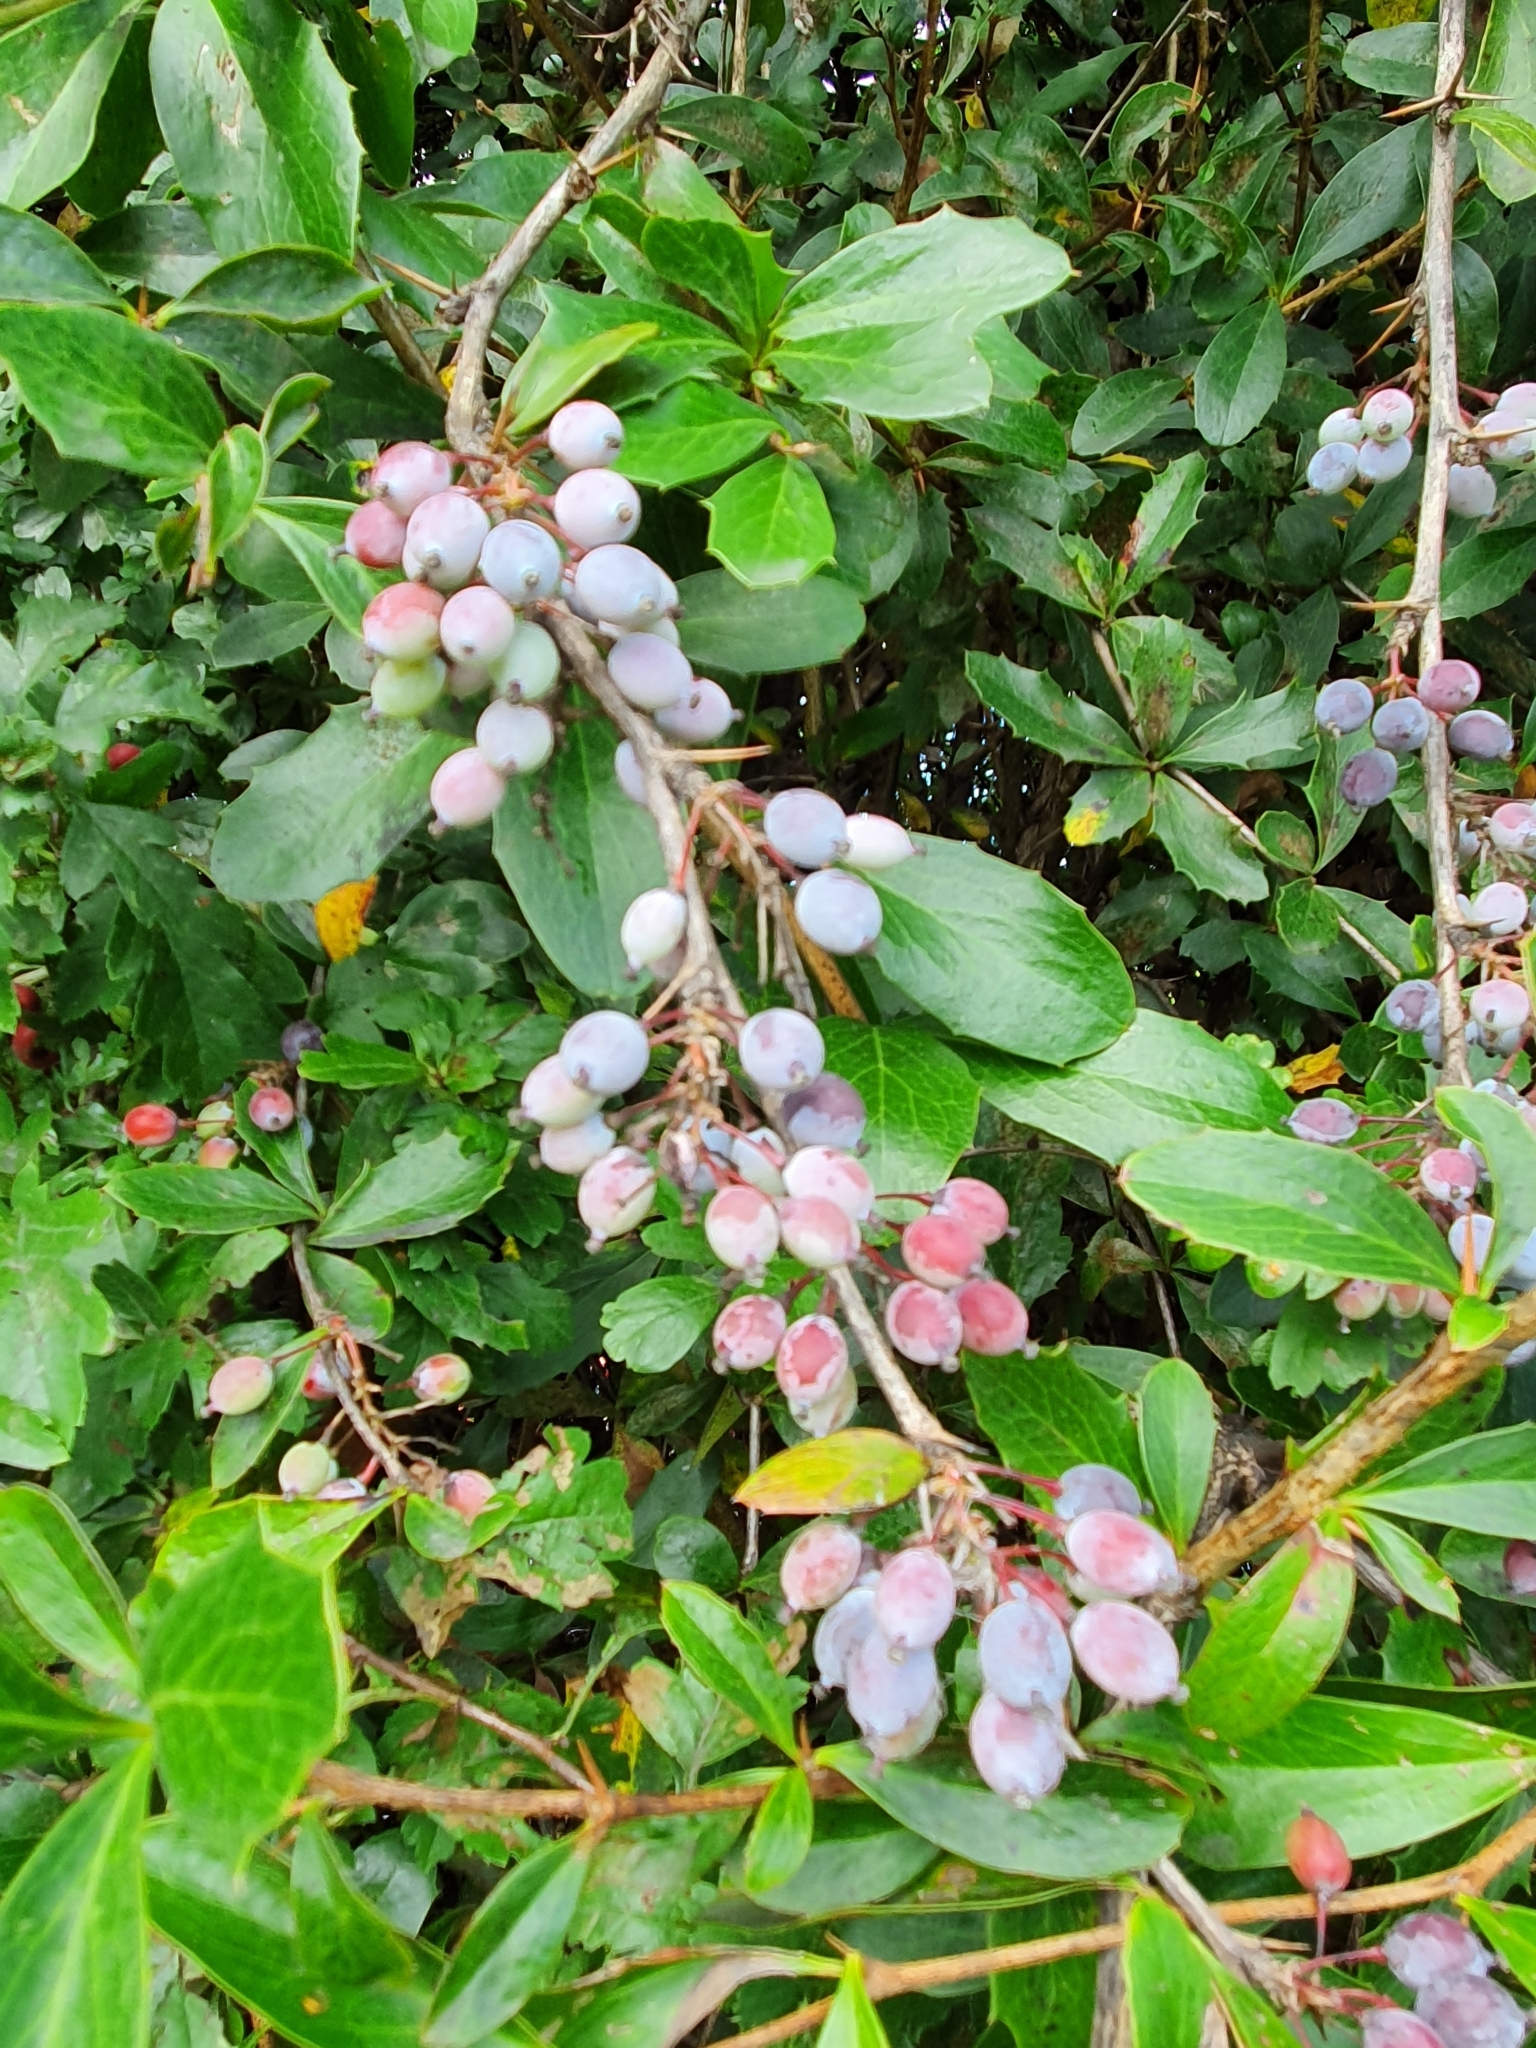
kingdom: Plantae
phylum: Tracheophyta
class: Magnoliopsida
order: Ranunculales
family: Berberidaceae
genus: Berberis
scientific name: Berberis glaucocarpa
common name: Great barberry
